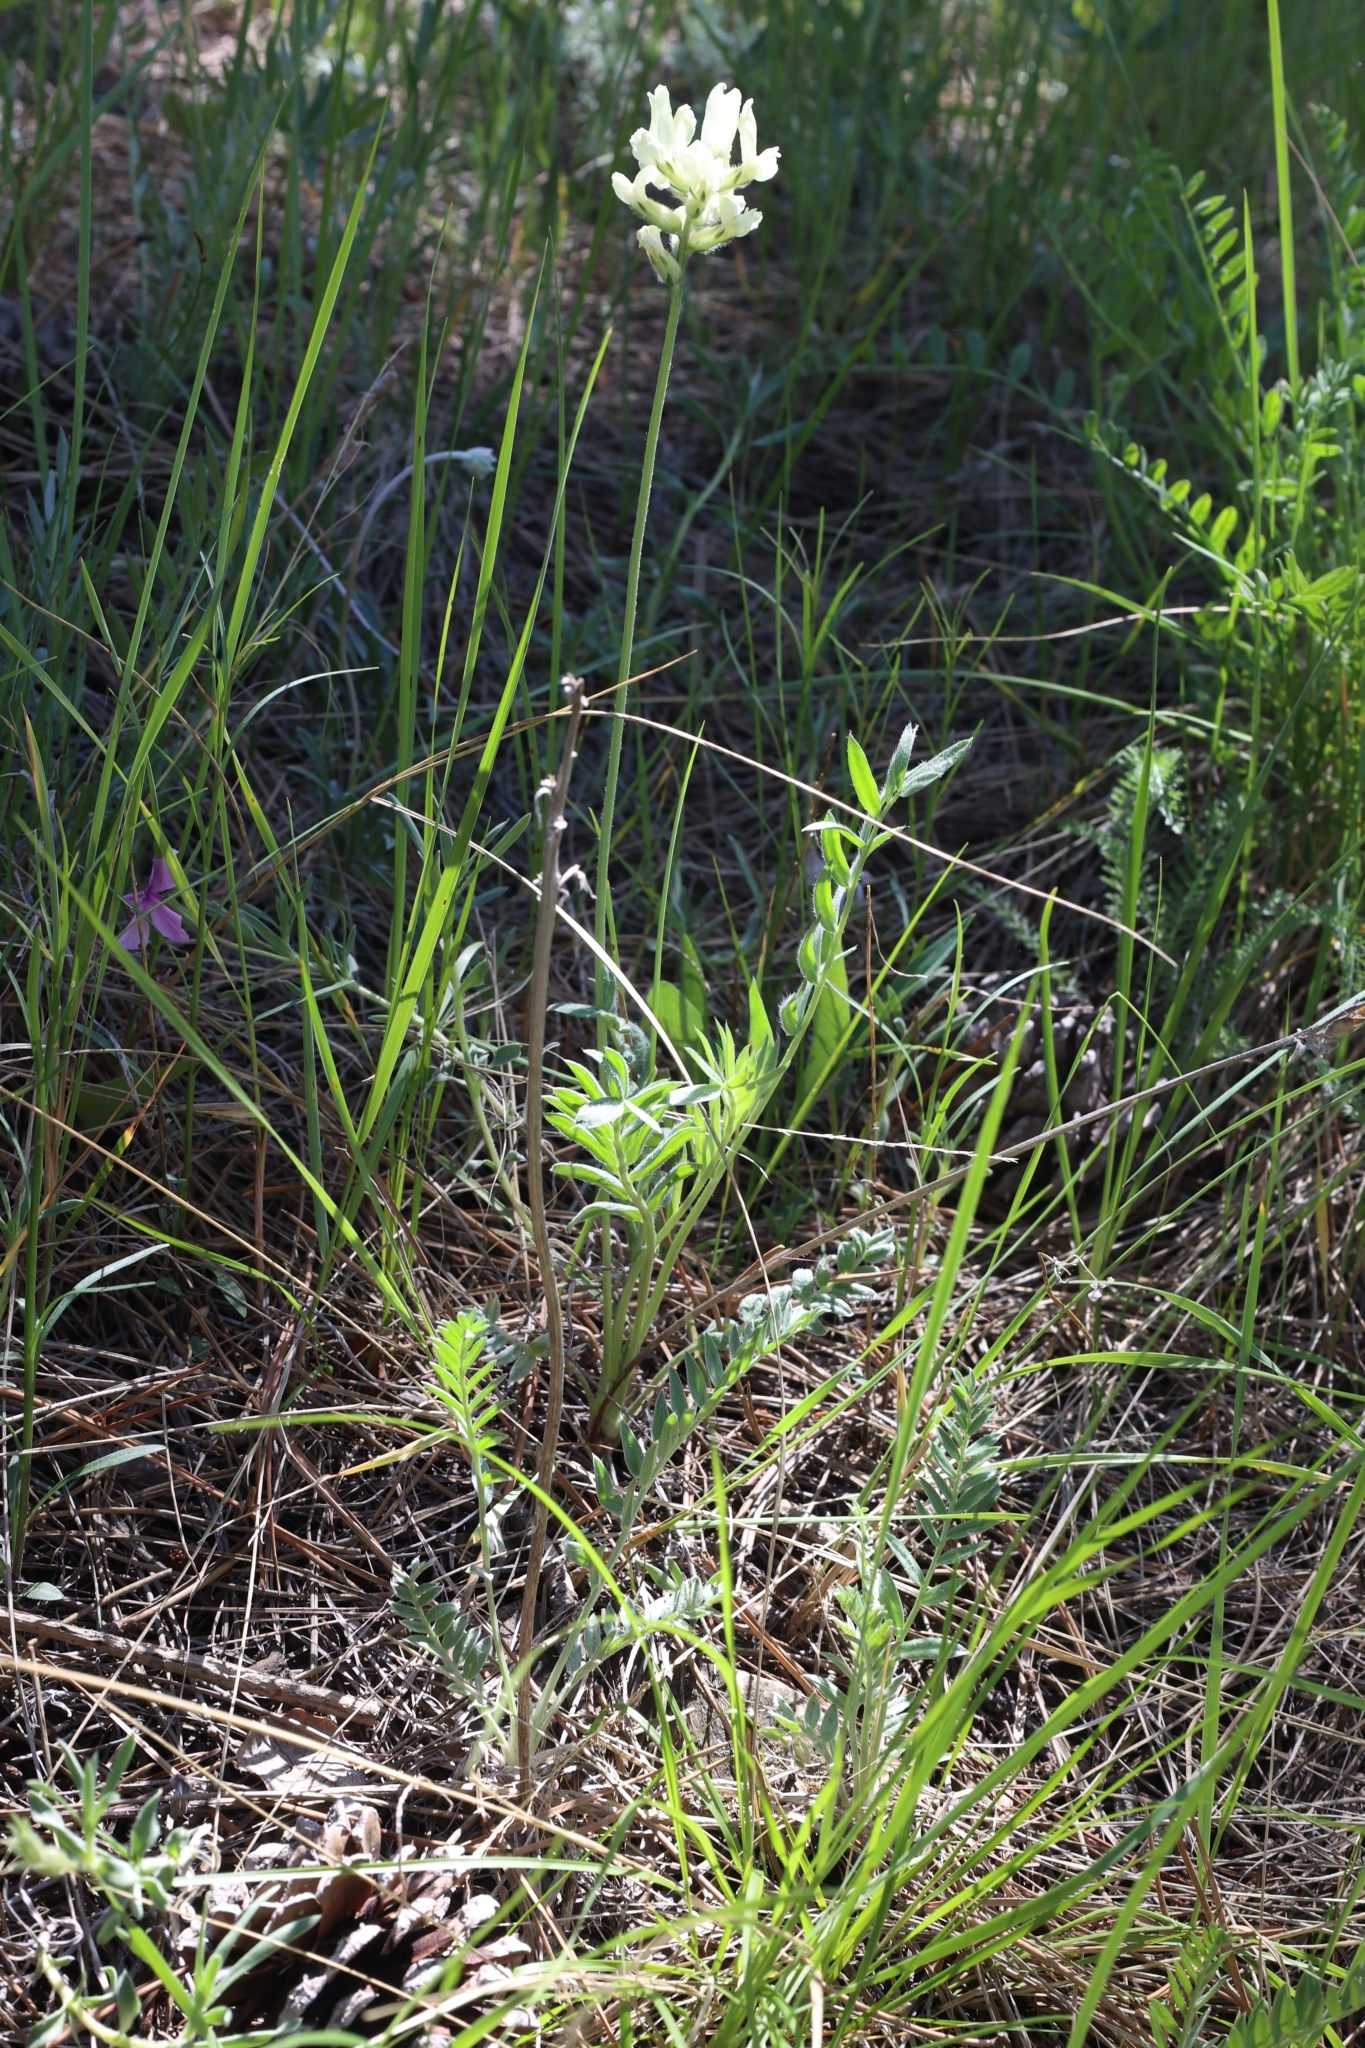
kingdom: Plantae
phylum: Tracheophyta
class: Magnoliopsida
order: Fabales
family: Fabaceae
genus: Oxytropis
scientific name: Oxytropis sericea
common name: Silky locoweed
